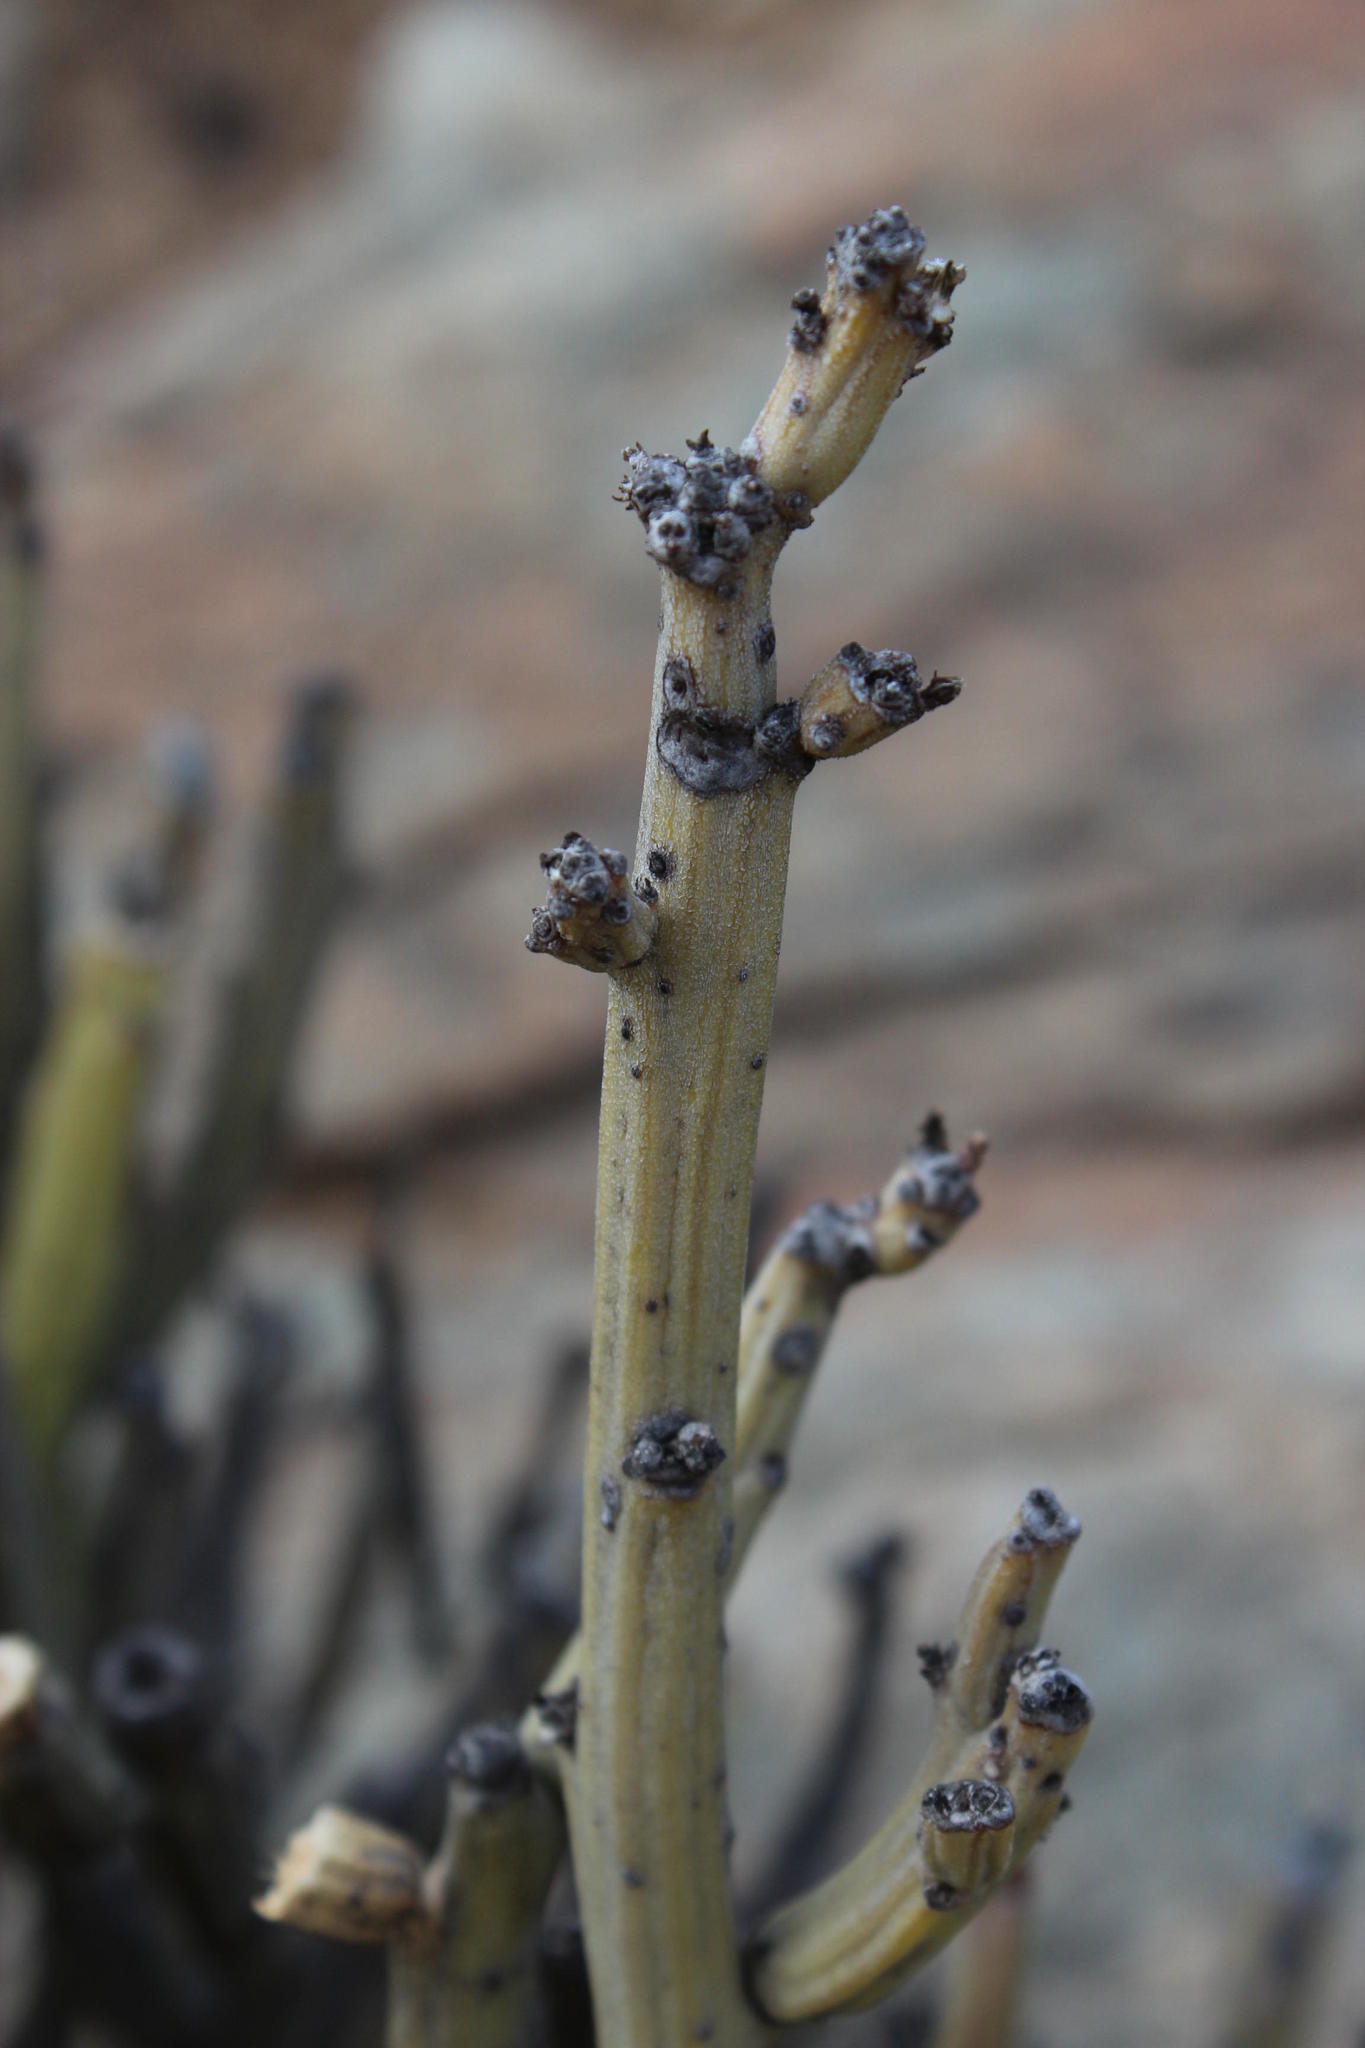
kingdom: Plantae
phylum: Tracheophyta
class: Magnoliopsida
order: Asterales
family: Asteraceae
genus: Curio
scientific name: Curio avasimontanus
